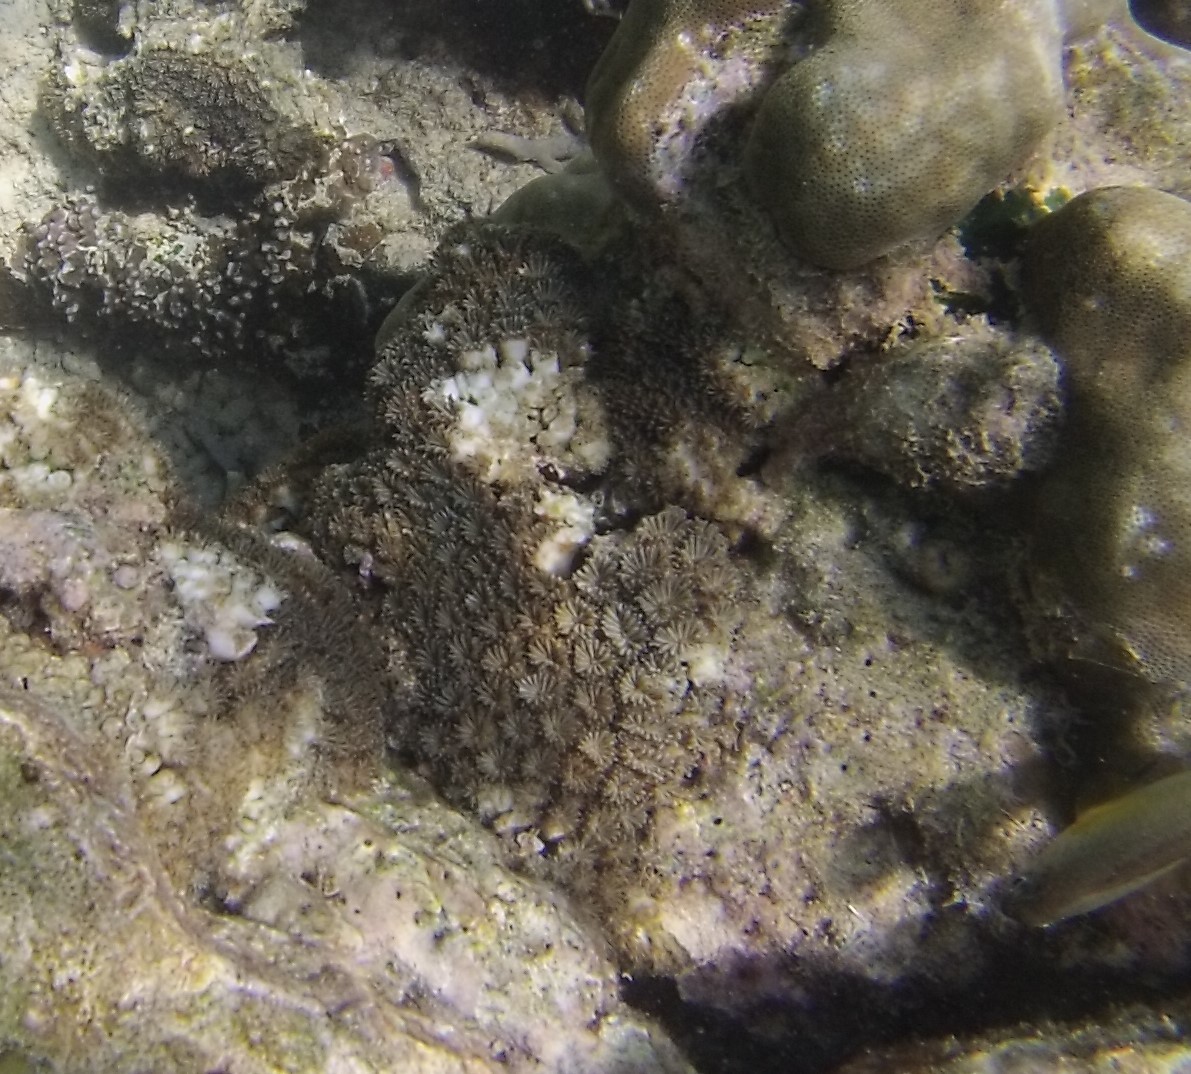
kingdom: Animalia
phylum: Cnidaria
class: Anthozoa
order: Scleractinia
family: Euphylliidae
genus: Galaxea
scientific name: Galaxea fascicularis
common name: Octopus coral
